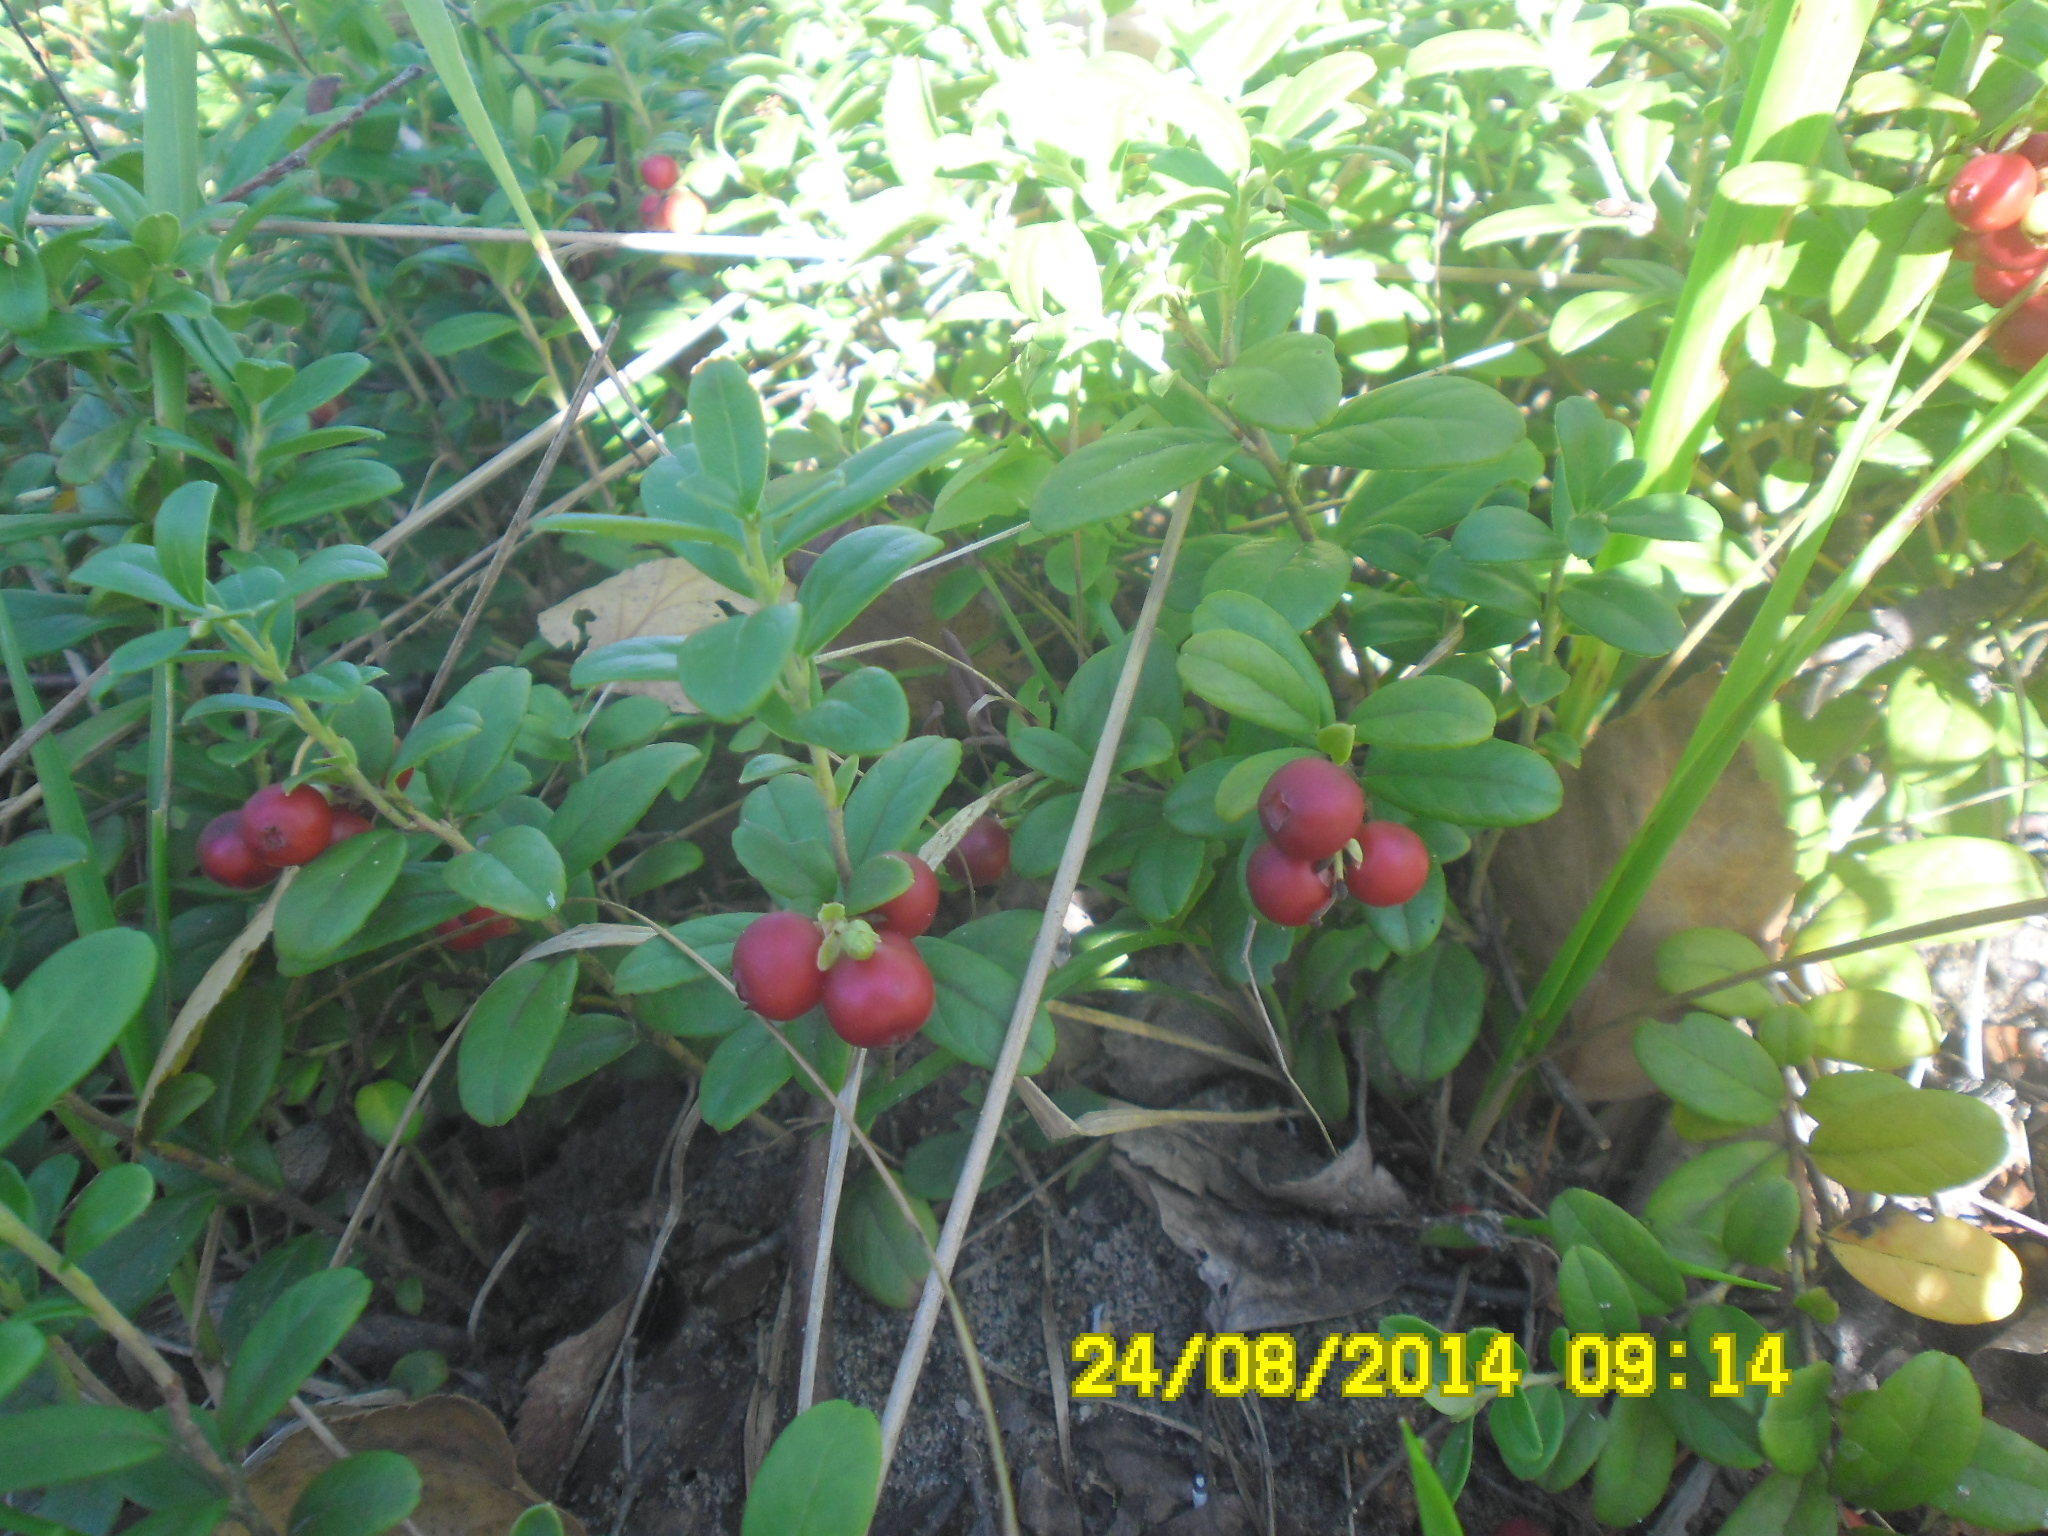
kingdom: Plantae
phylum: Tracheophyta
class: Magnoliopsida
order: Ericales
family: Ericaceae
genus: Vaccinium
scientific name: Vaccinium vitis-idaea
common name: Cowberry
